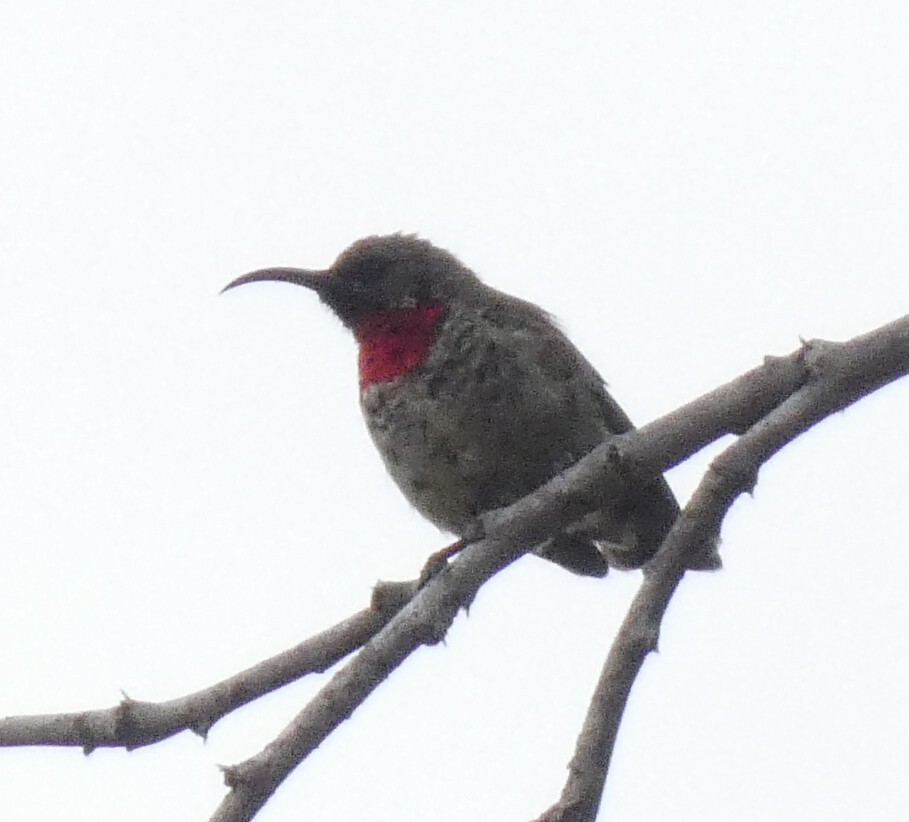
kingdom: Animalia
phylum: Chordata
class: Aves
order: Passeriformes
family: Nectariniidae
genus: Chalcomitra
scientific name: Chalcomitra senegalensis
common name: Scarlet-chested sunbird
